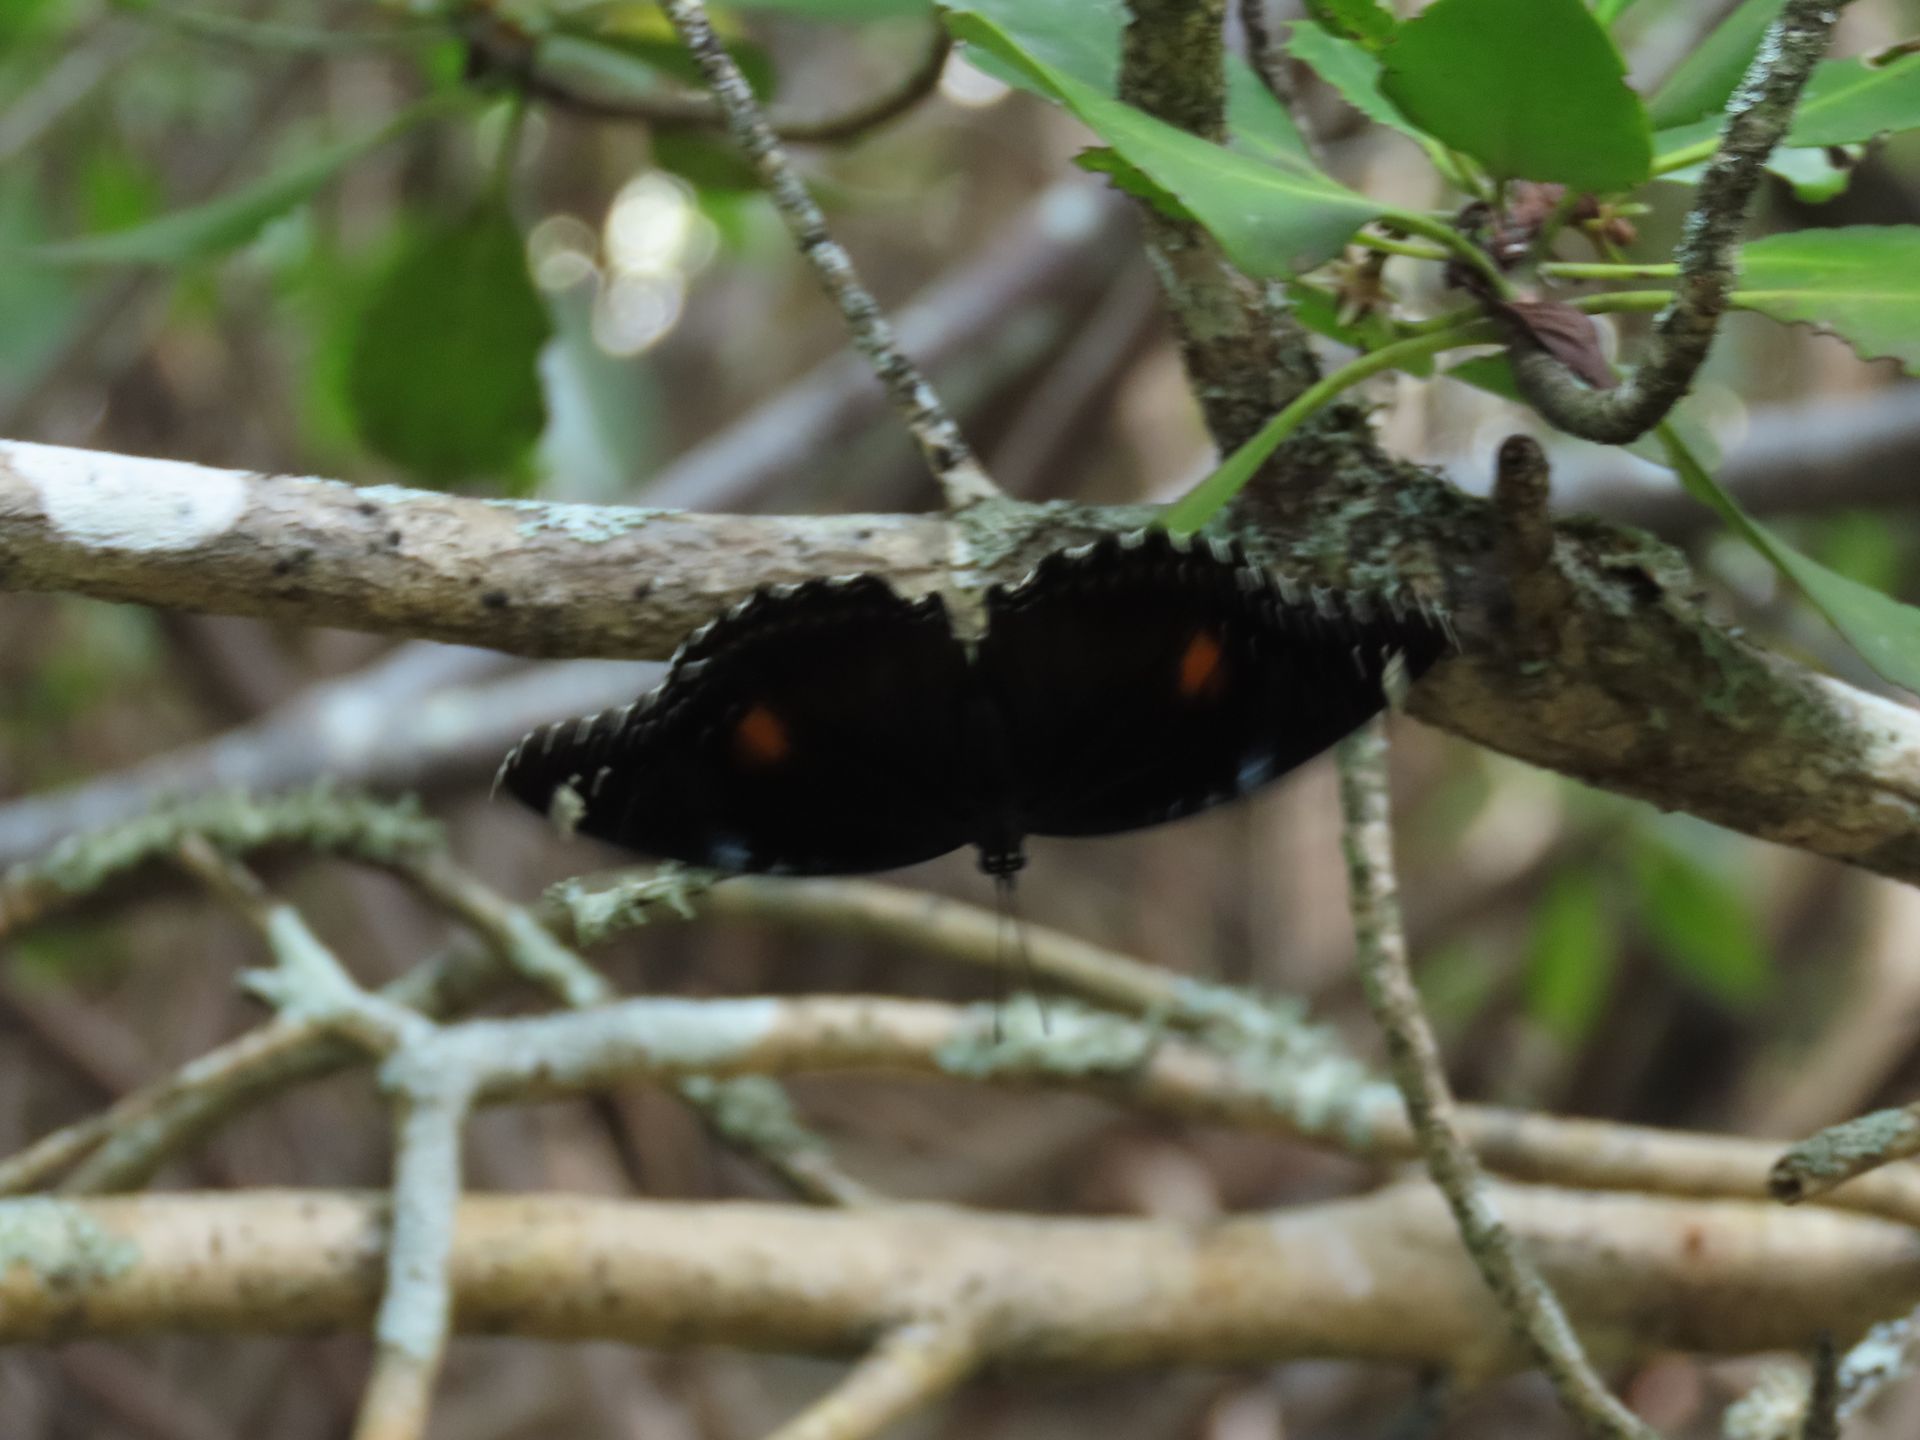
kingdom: Animalia
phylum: Arthropoda
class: Insecta
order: Lepidoptera
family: Nymphalidae
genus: Hypolimnas
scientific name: Hypolimnas bolina
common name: Great eggfly
